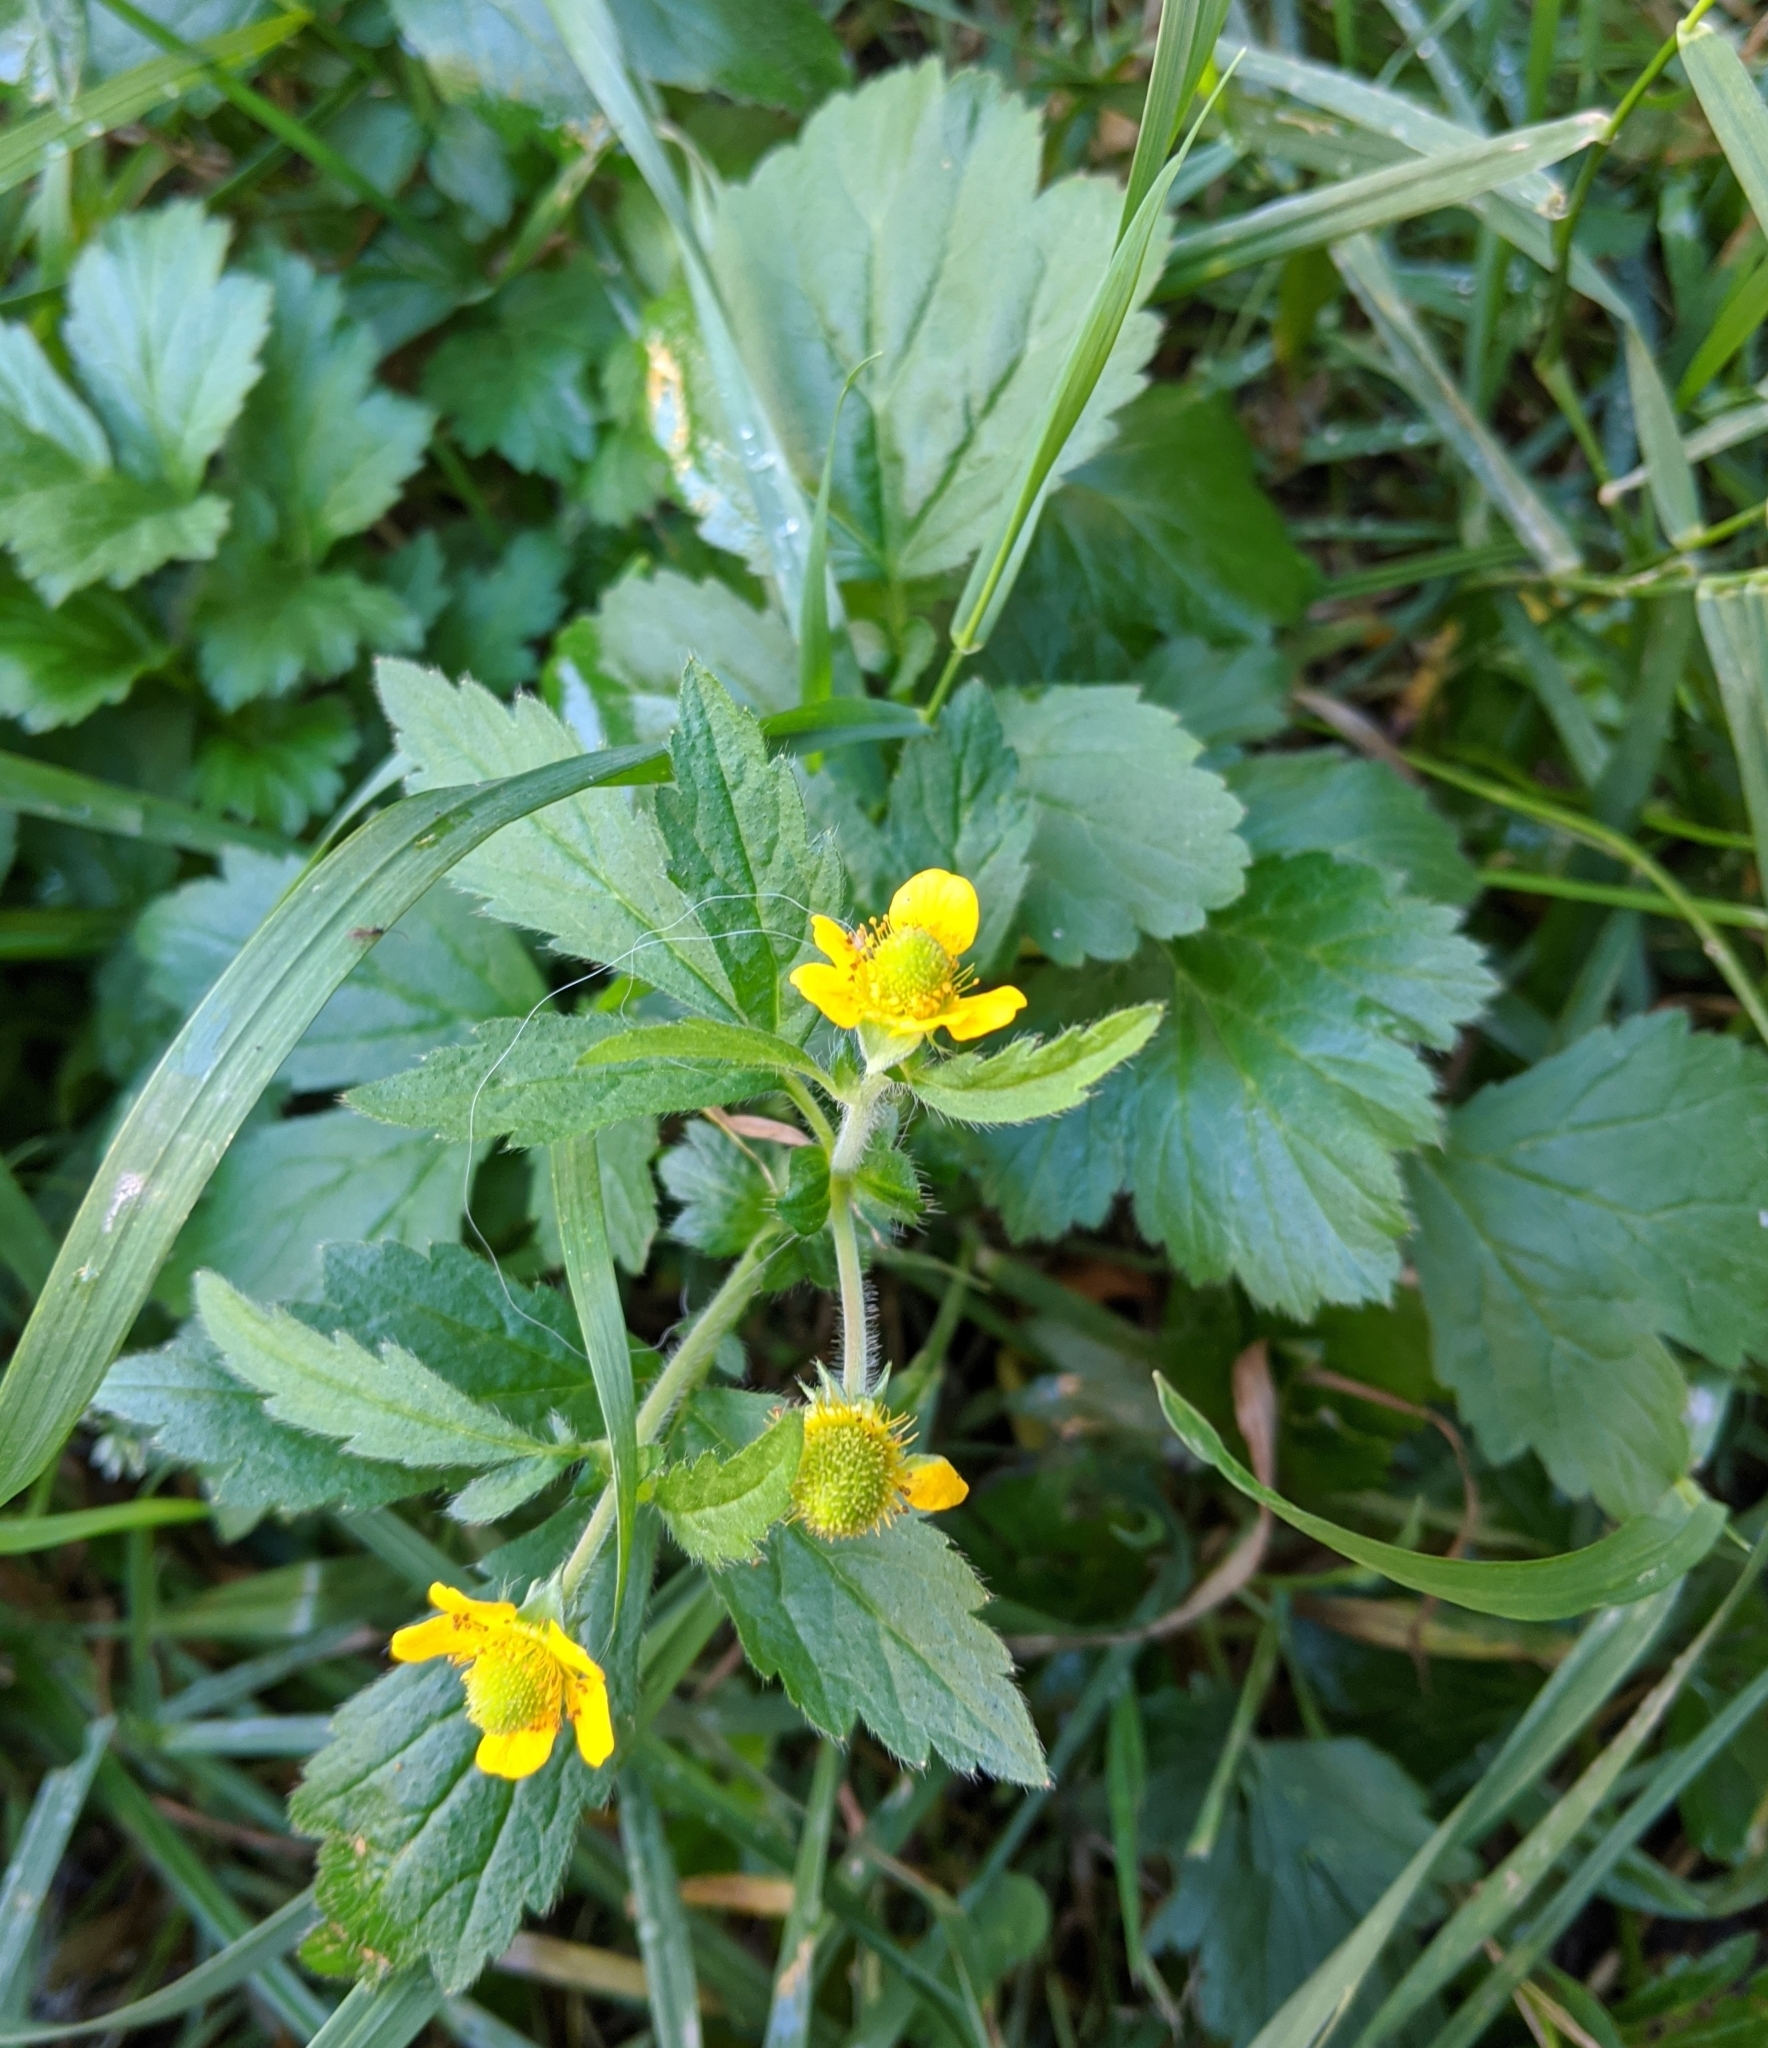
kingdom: Plantae
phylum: Tracheophyta
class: Magnoliopsida
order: Rosales
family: Rosaceae
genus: Geum
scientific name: Geum aleppicum
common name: Yellow avens
